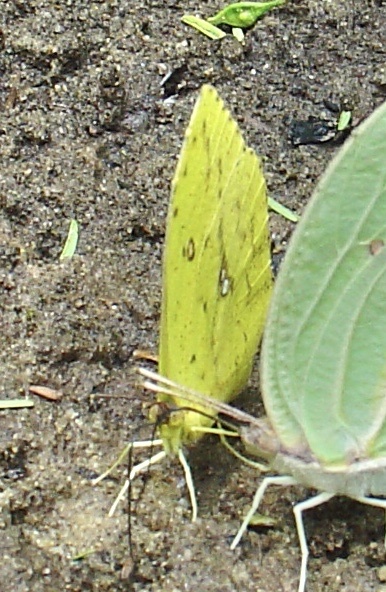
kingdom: Animalia
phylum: Arthropoda
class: Insecta
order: Lepidoptera
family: Pieridae
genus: Phoebis
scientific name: Phoebis neocypris
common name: Tailed sulphur
